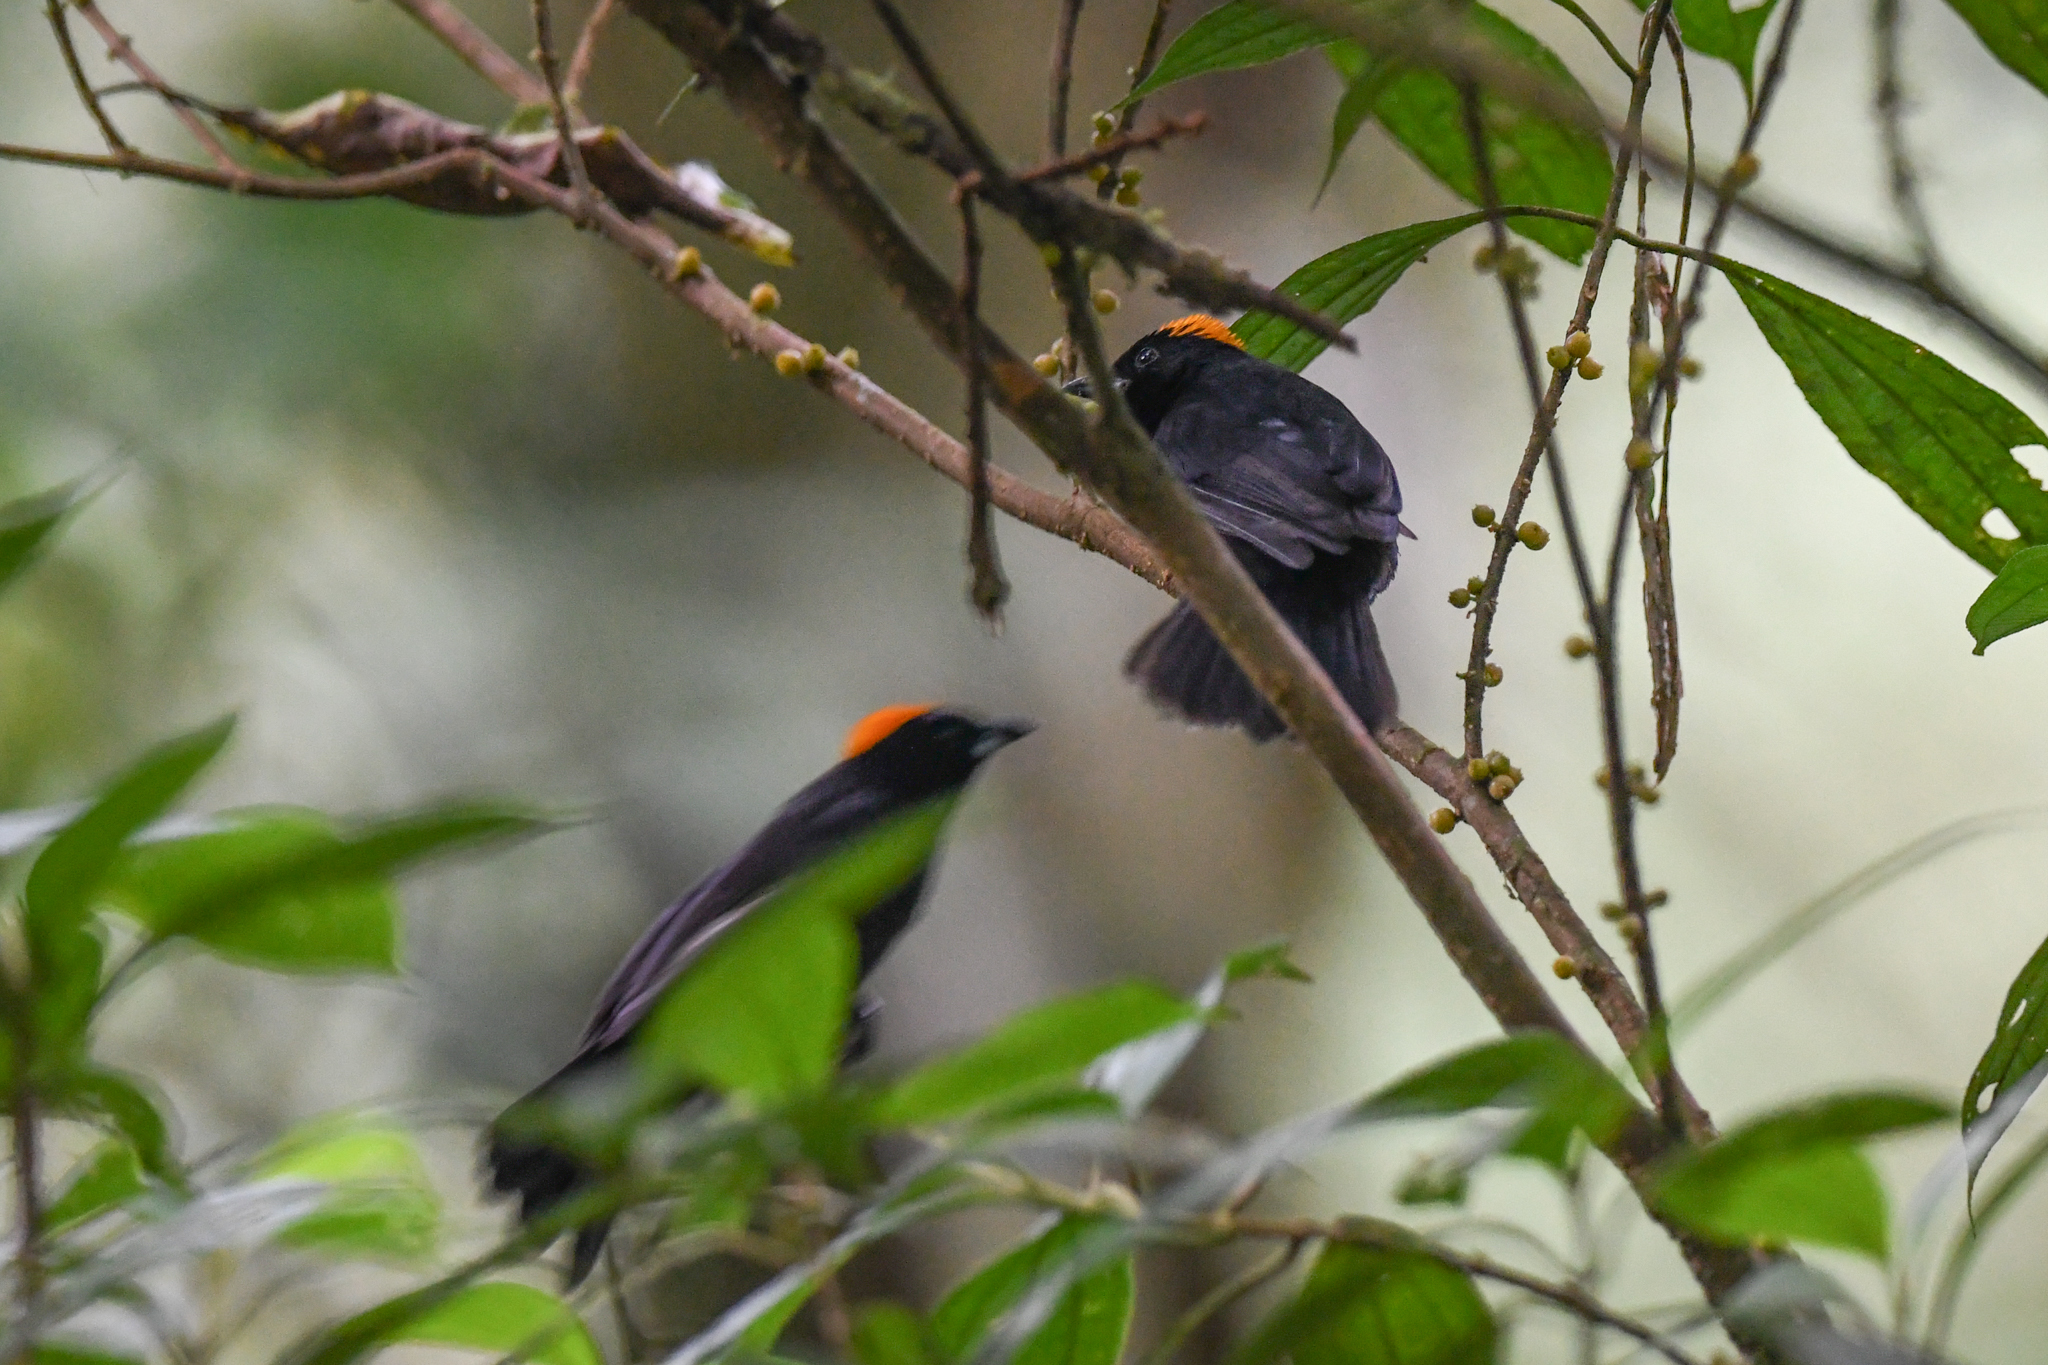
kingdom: Animalia
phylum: Chordata
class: Aves
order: Passeriformes
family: Thraupidae
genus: Tachyphonus
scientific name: Tachyphonus delatrii
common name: Tawny-crested tanager
